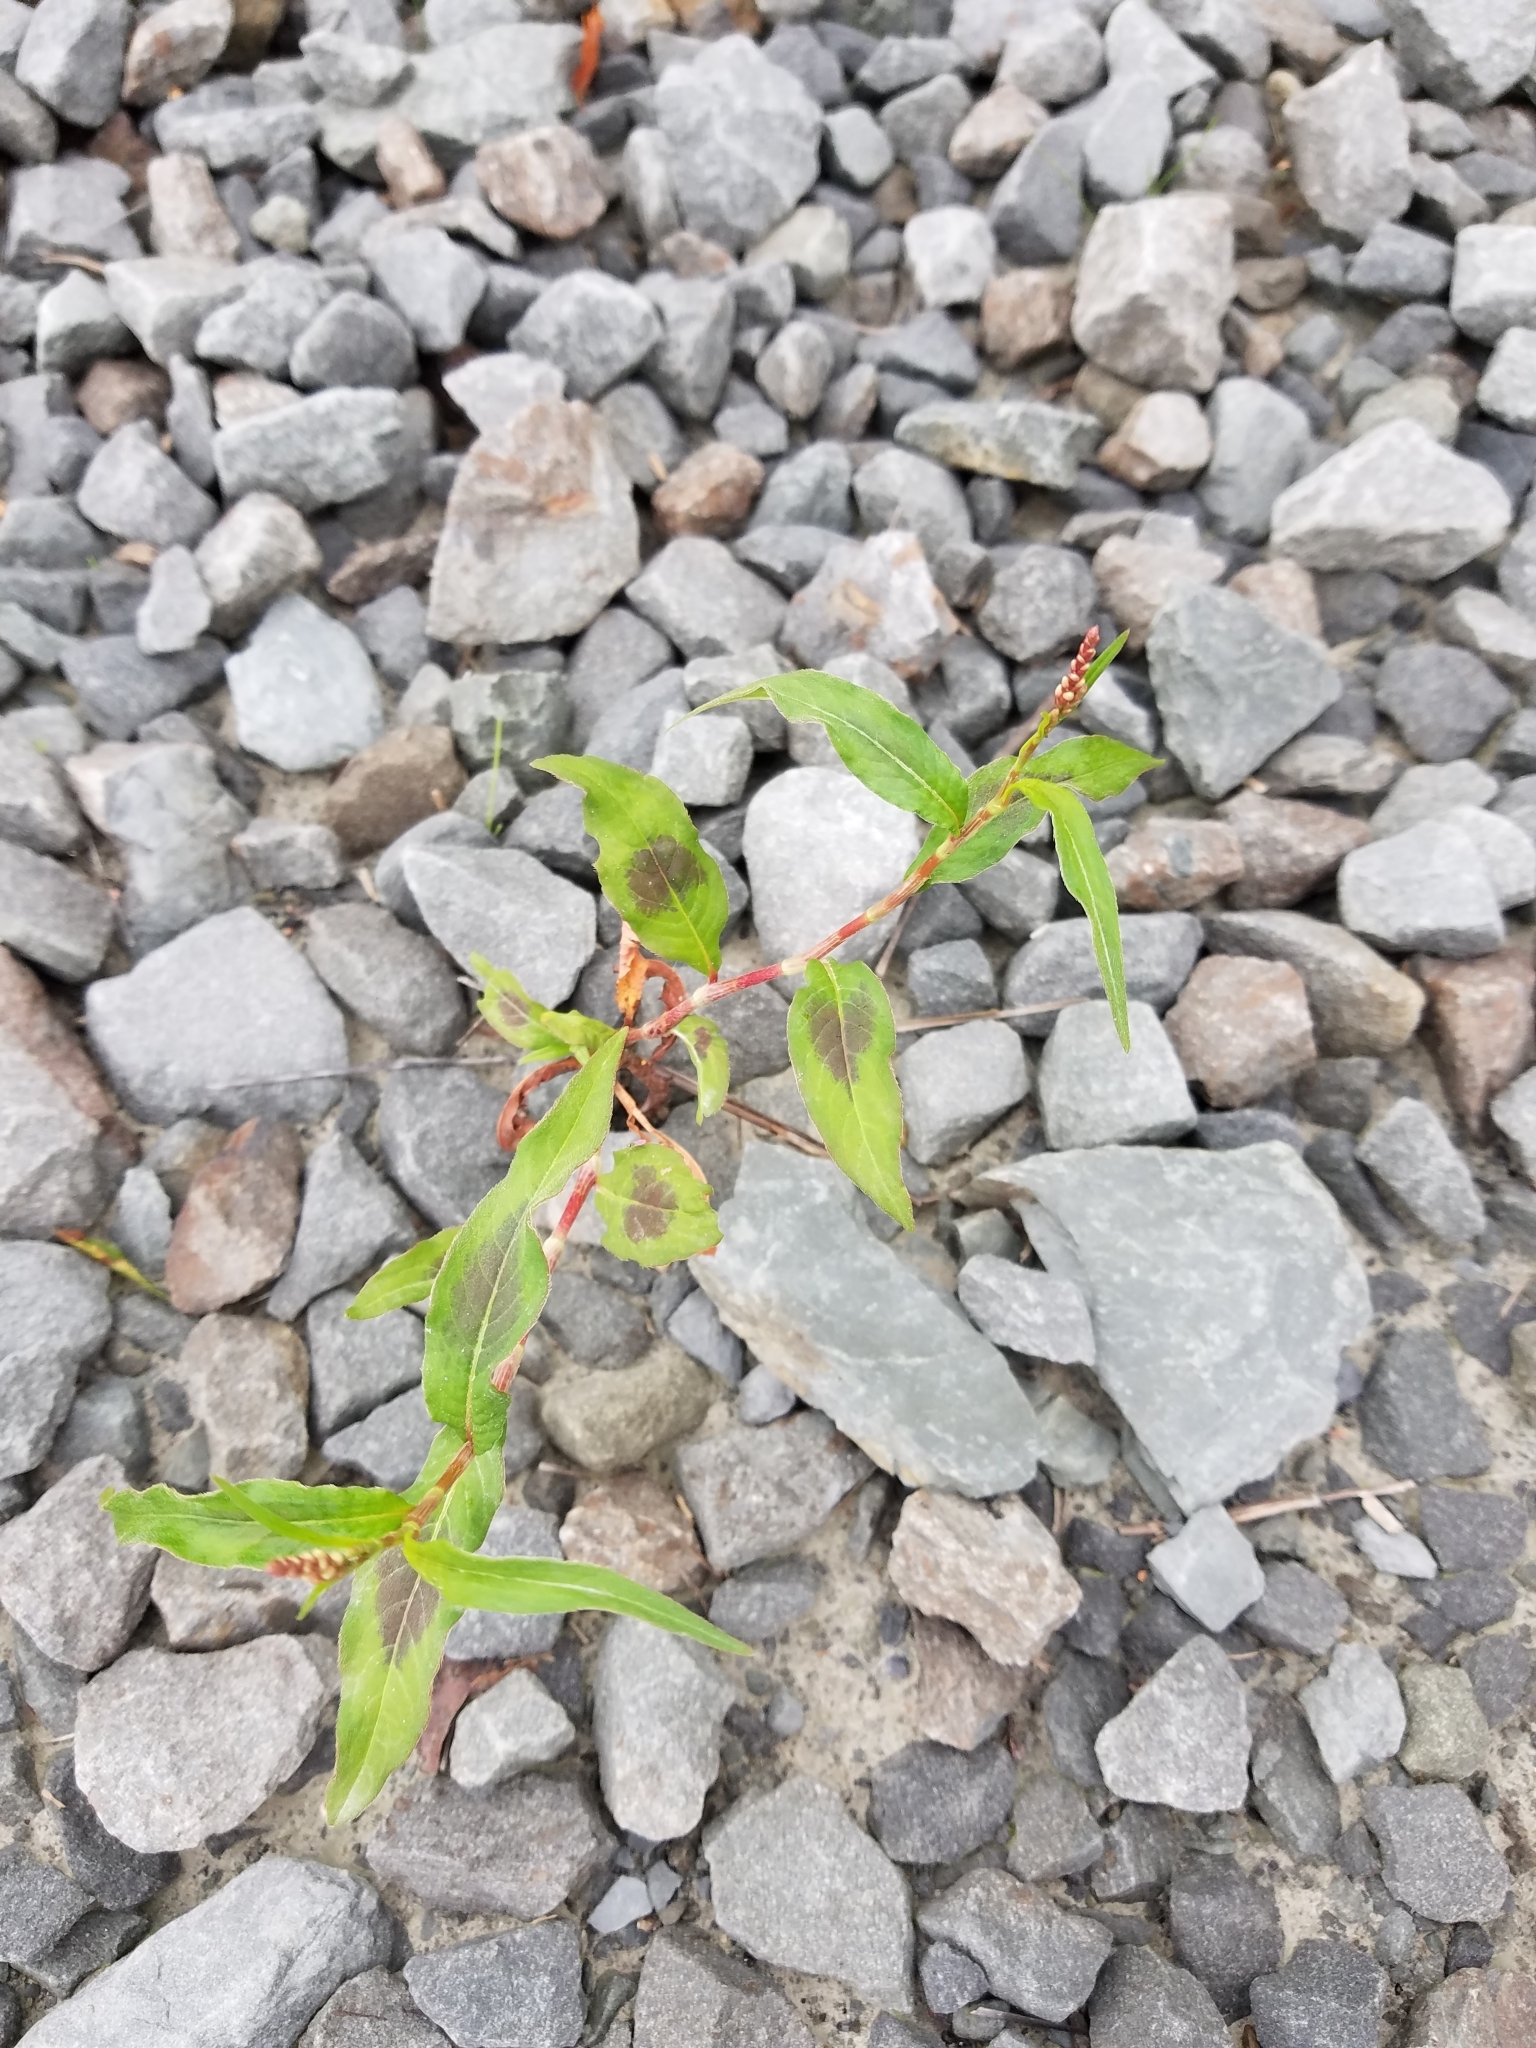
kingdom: Plantae
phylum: Tracheophyta
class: Magnoliopsida
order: Caryophyllales
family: Polygonaceae
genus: Persicaria
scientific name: Persicaria maculosa
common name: Redshank
